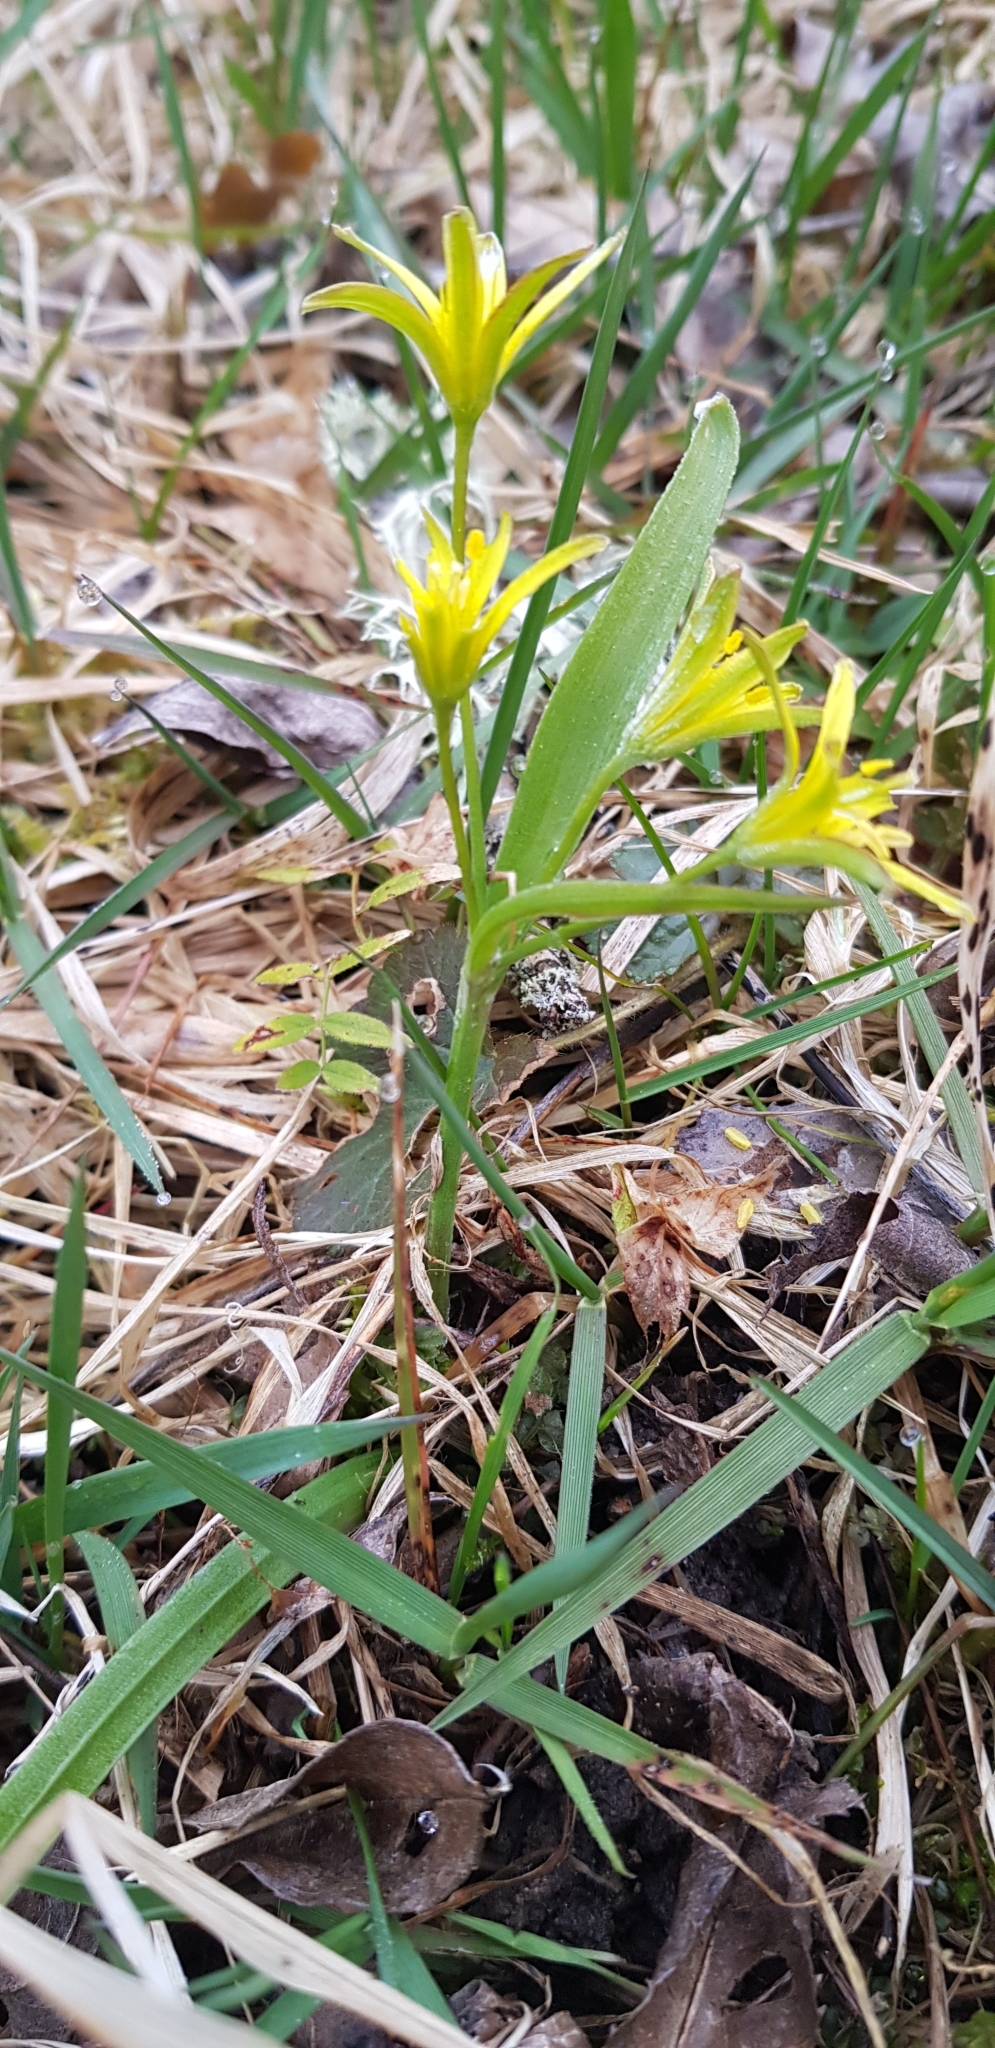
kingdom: Plantae
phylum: Tracheophyta
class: Liliopsida
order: Liliales
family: Liliaceae
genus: Gagea
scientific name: Gagea lutea
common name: Yellow star-of-bethlehem
